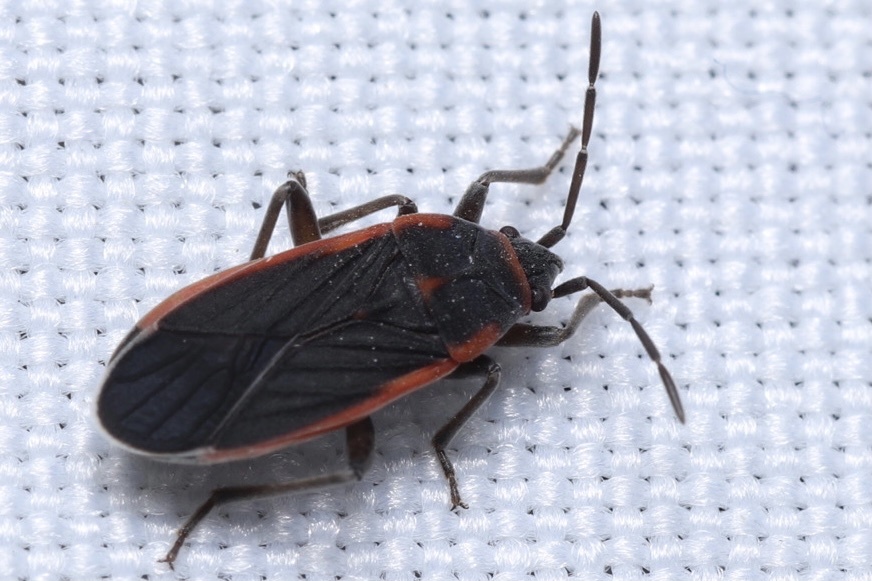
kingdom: Animalia
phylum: Arthropoda
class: Insecta
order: Hemiptera
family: Lygaeidae
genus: Melacoryphus
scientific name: Melacoryphus lateralis
